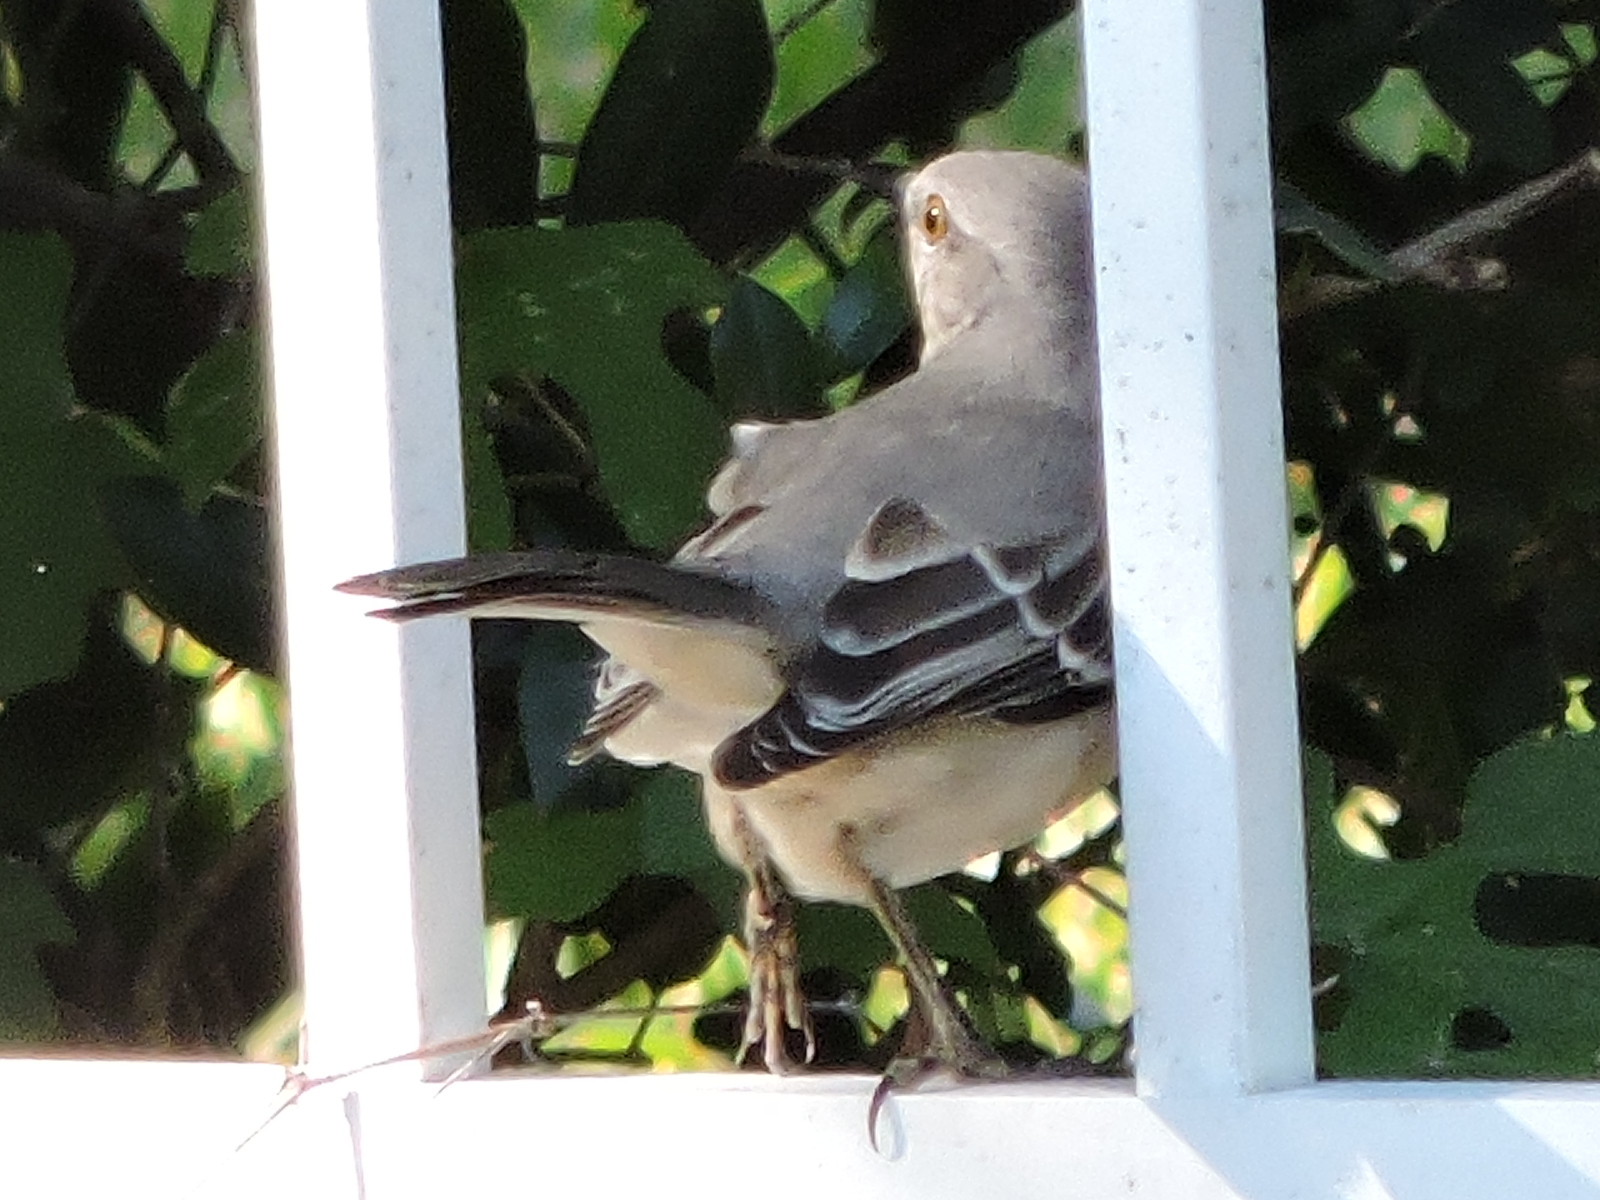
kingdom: Animalia
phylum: Chordata
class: Aves
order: Passeriformes
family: Mimidae
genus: Mimus
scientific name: Mimus polyglottos
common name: Northern mockingbird
